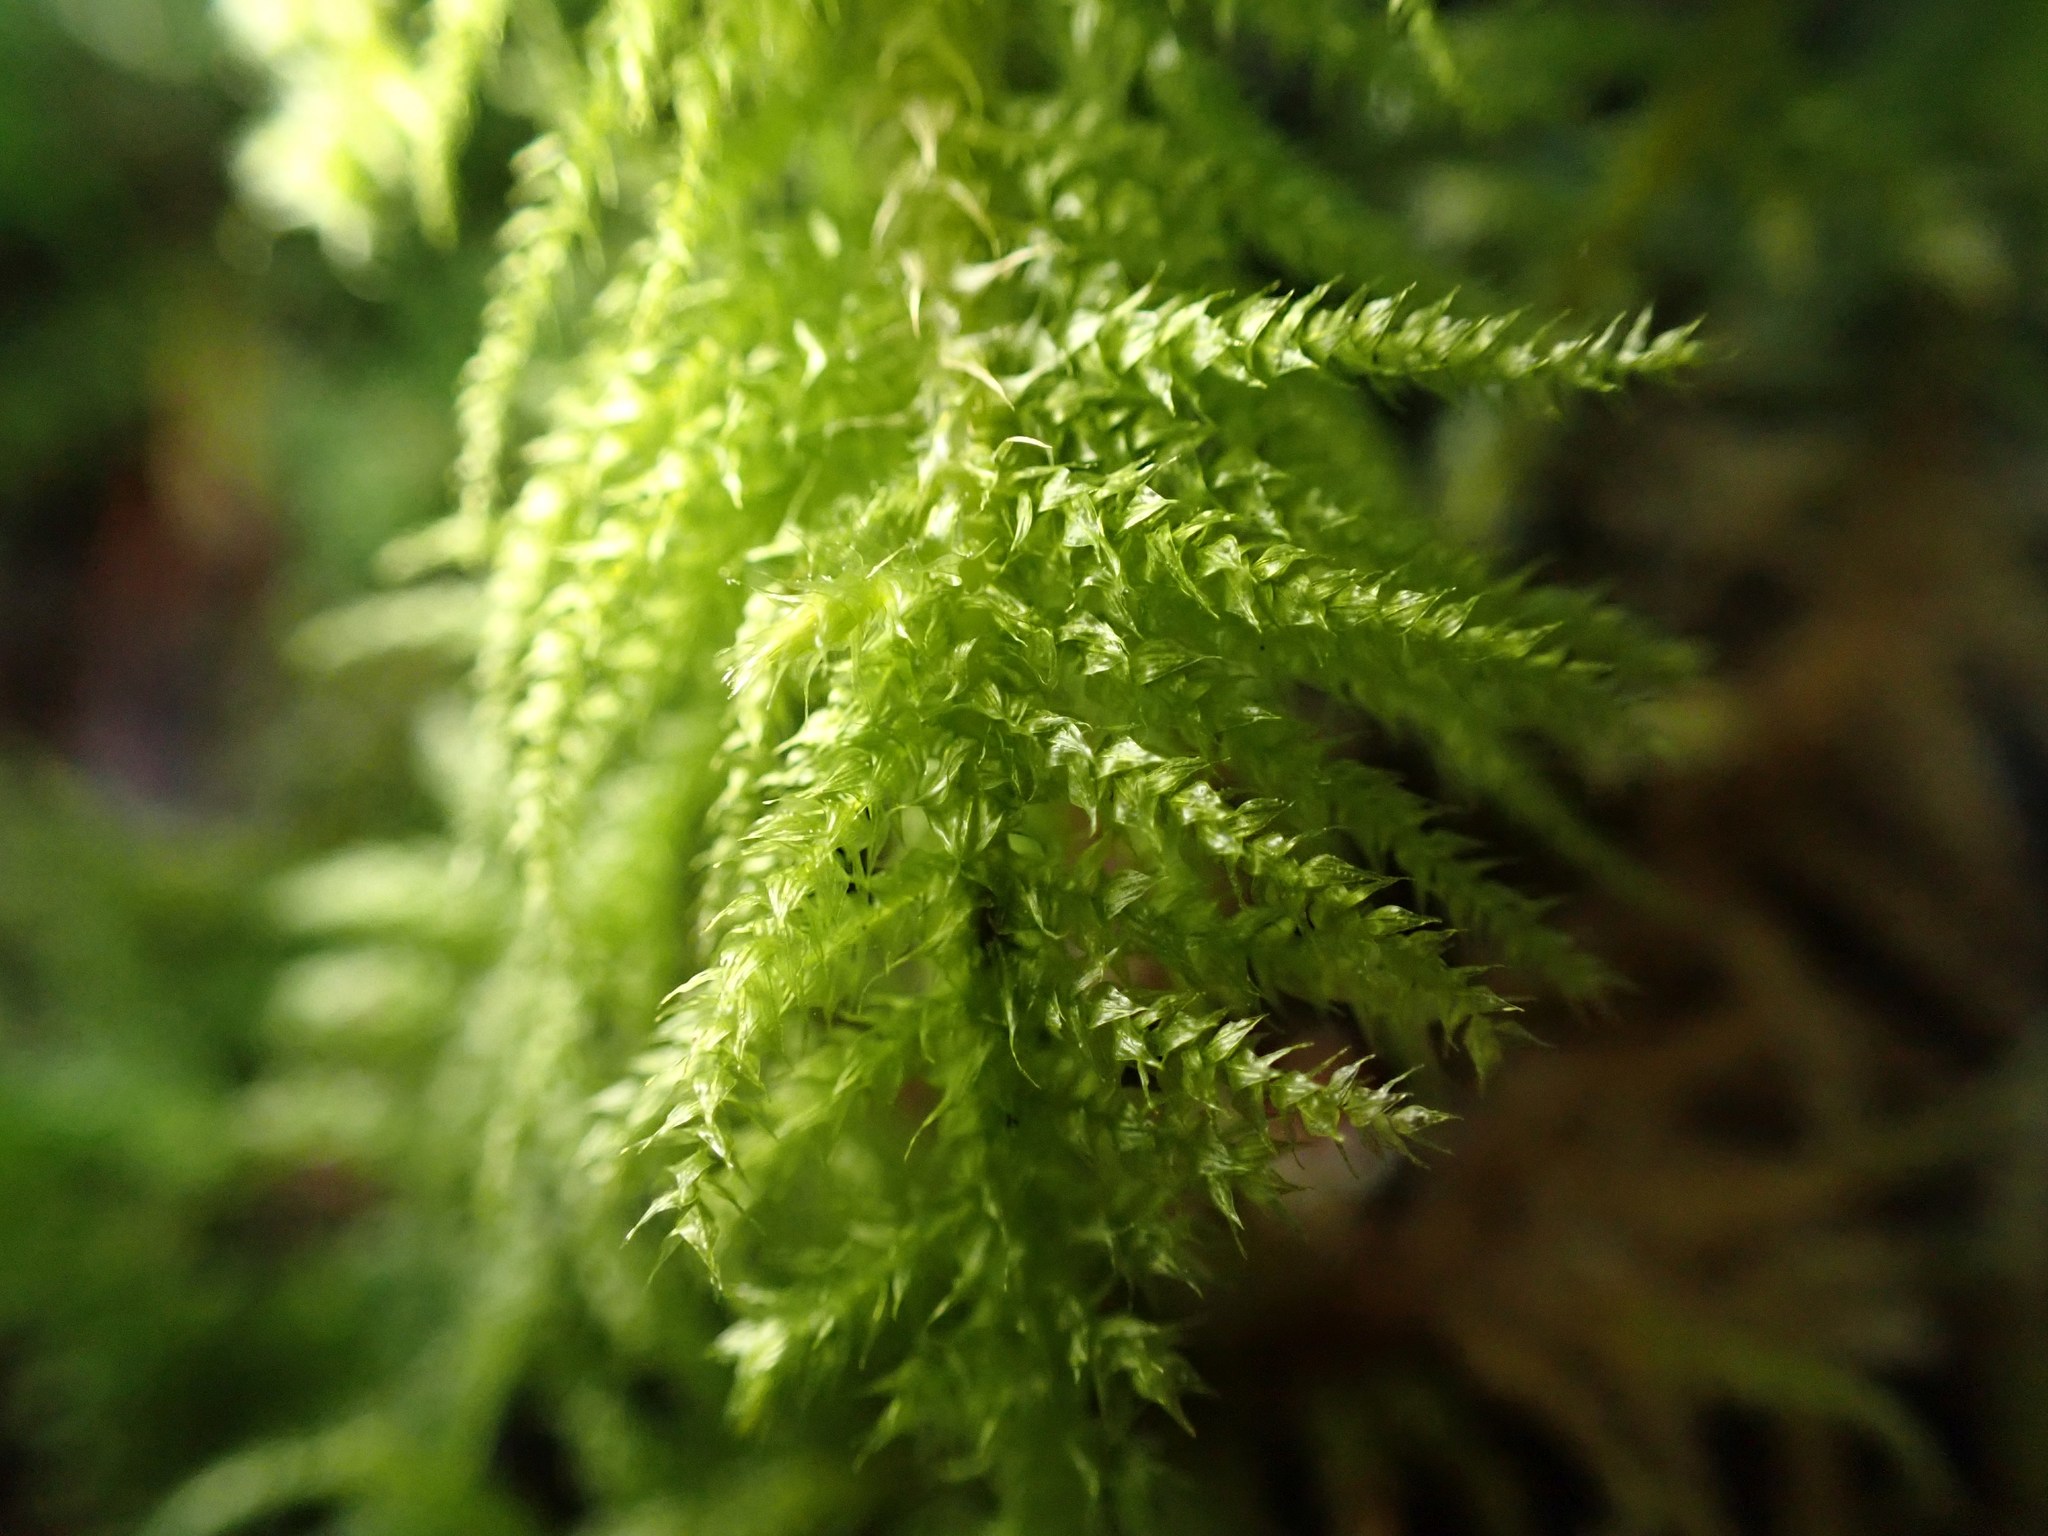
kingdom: Plantae
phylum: Bryophyta
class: Bryopsida
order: Hypnales
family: Brachytheciaceae
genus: Kindbergia
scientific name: Kindbergia oregana
